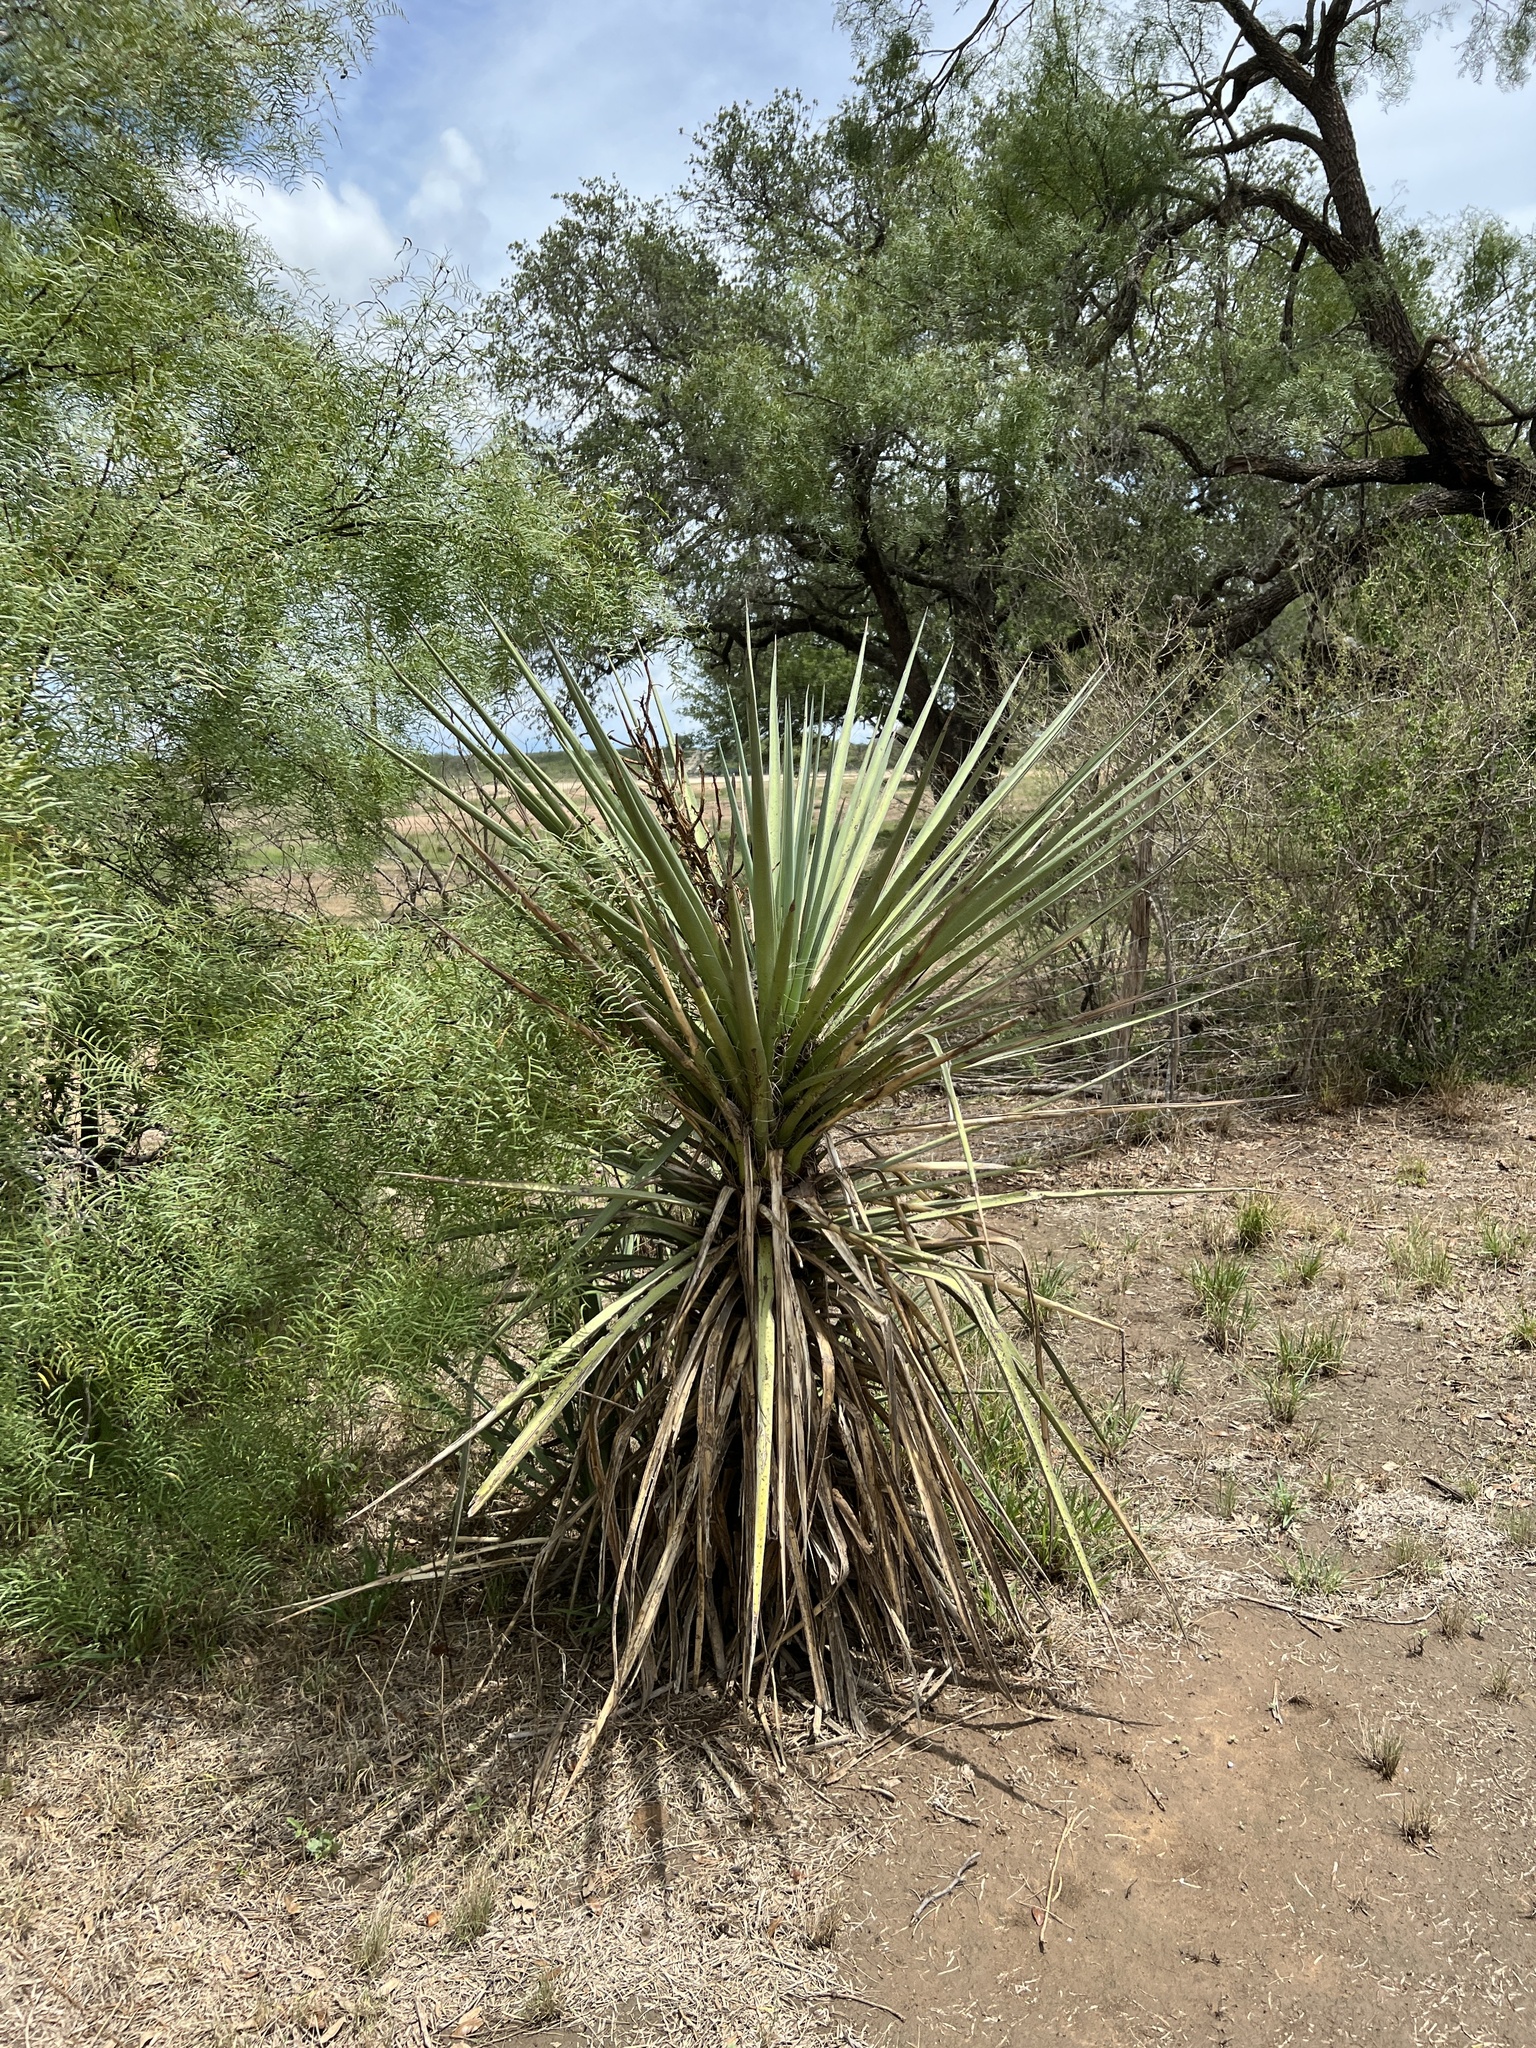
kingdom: Plantae
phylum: Tracheophyta
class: Liliopsida
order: Asparagales
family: Asparagaceae
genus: Yucca
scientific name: Yucca treculiana
